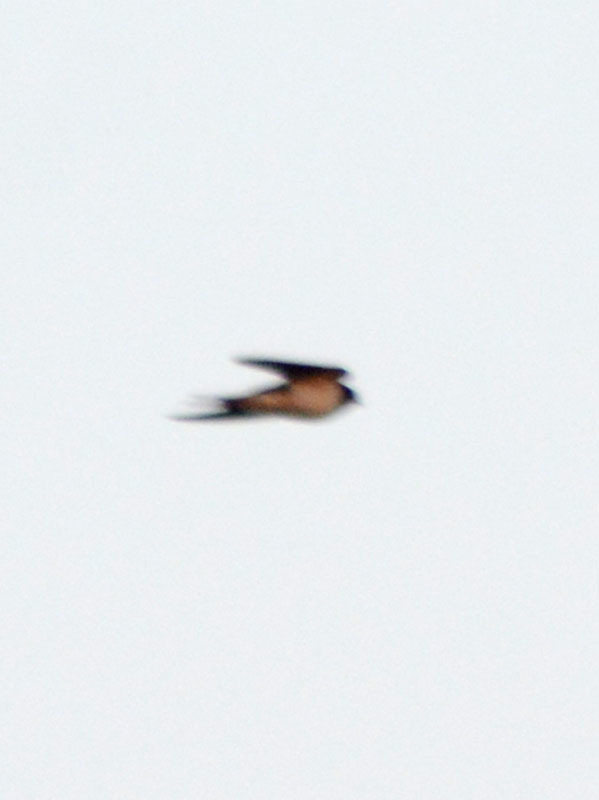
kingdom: Animalia
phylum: Chordata
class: Aves
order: Passeriformes
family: Hirundinidae
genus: Hirundo
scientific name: Hirundo rustica
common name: Barn swallow
